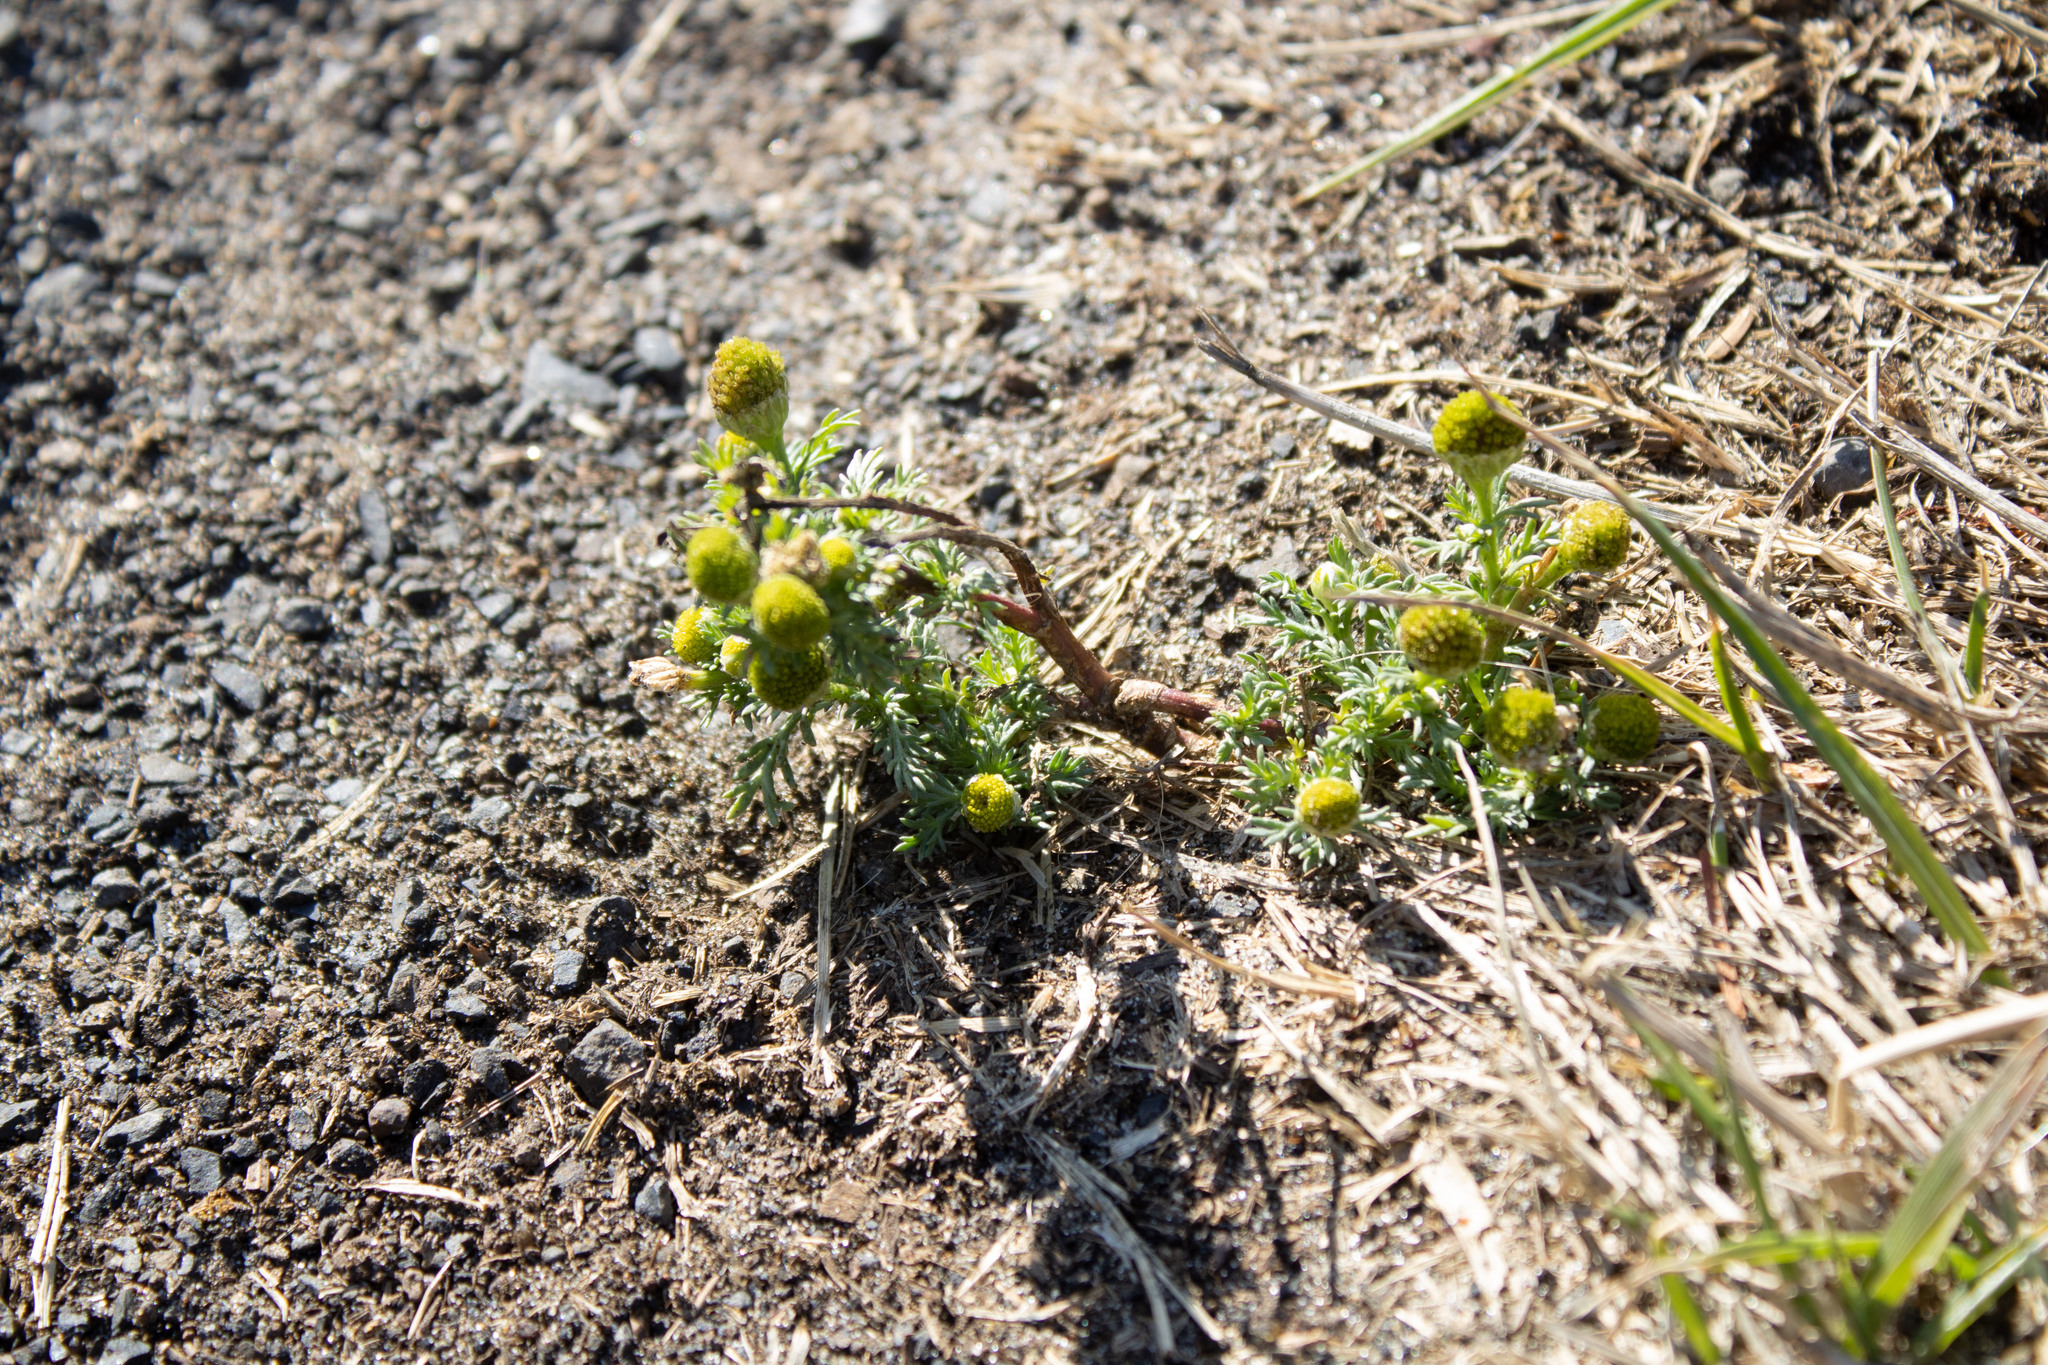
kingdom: Plantae
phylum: Tracheophyta
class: Magnoliopsida
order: Asterales
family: Asteraceae
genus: Matricaria
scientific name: Matricaria discoidea
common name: Disc mayweed
